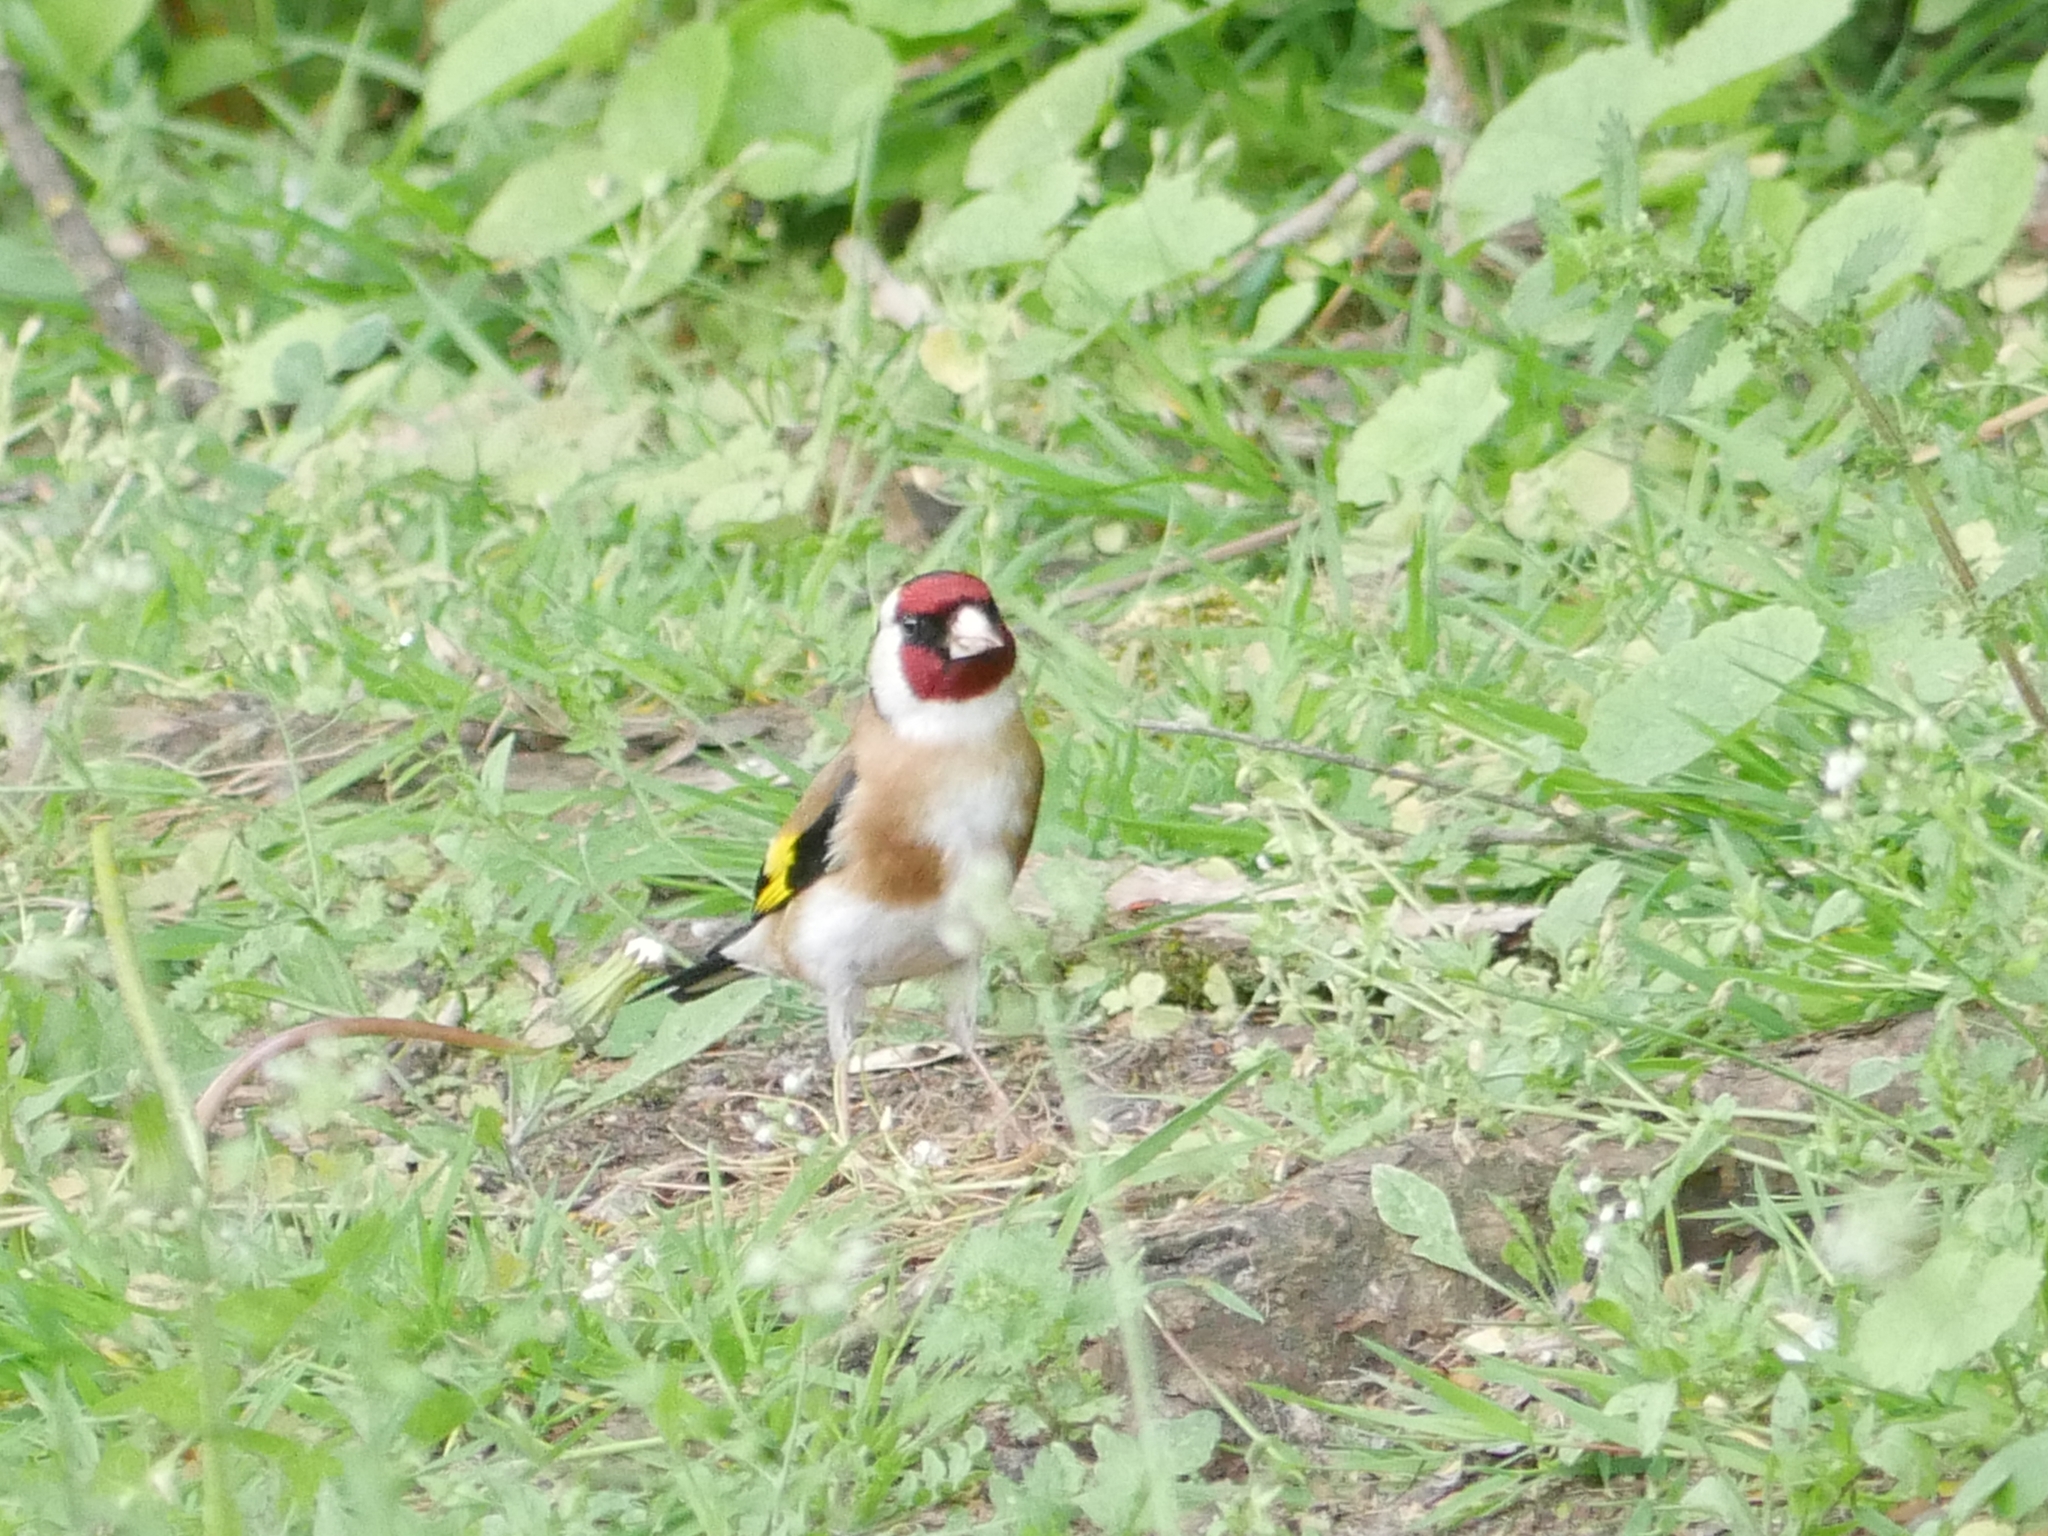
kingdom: Animalia
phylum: Chordata
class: Aves
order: Passeriformes
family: Fringillidae
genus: Carduelis
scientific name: Carduelis carduelis
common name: European goldfinch
